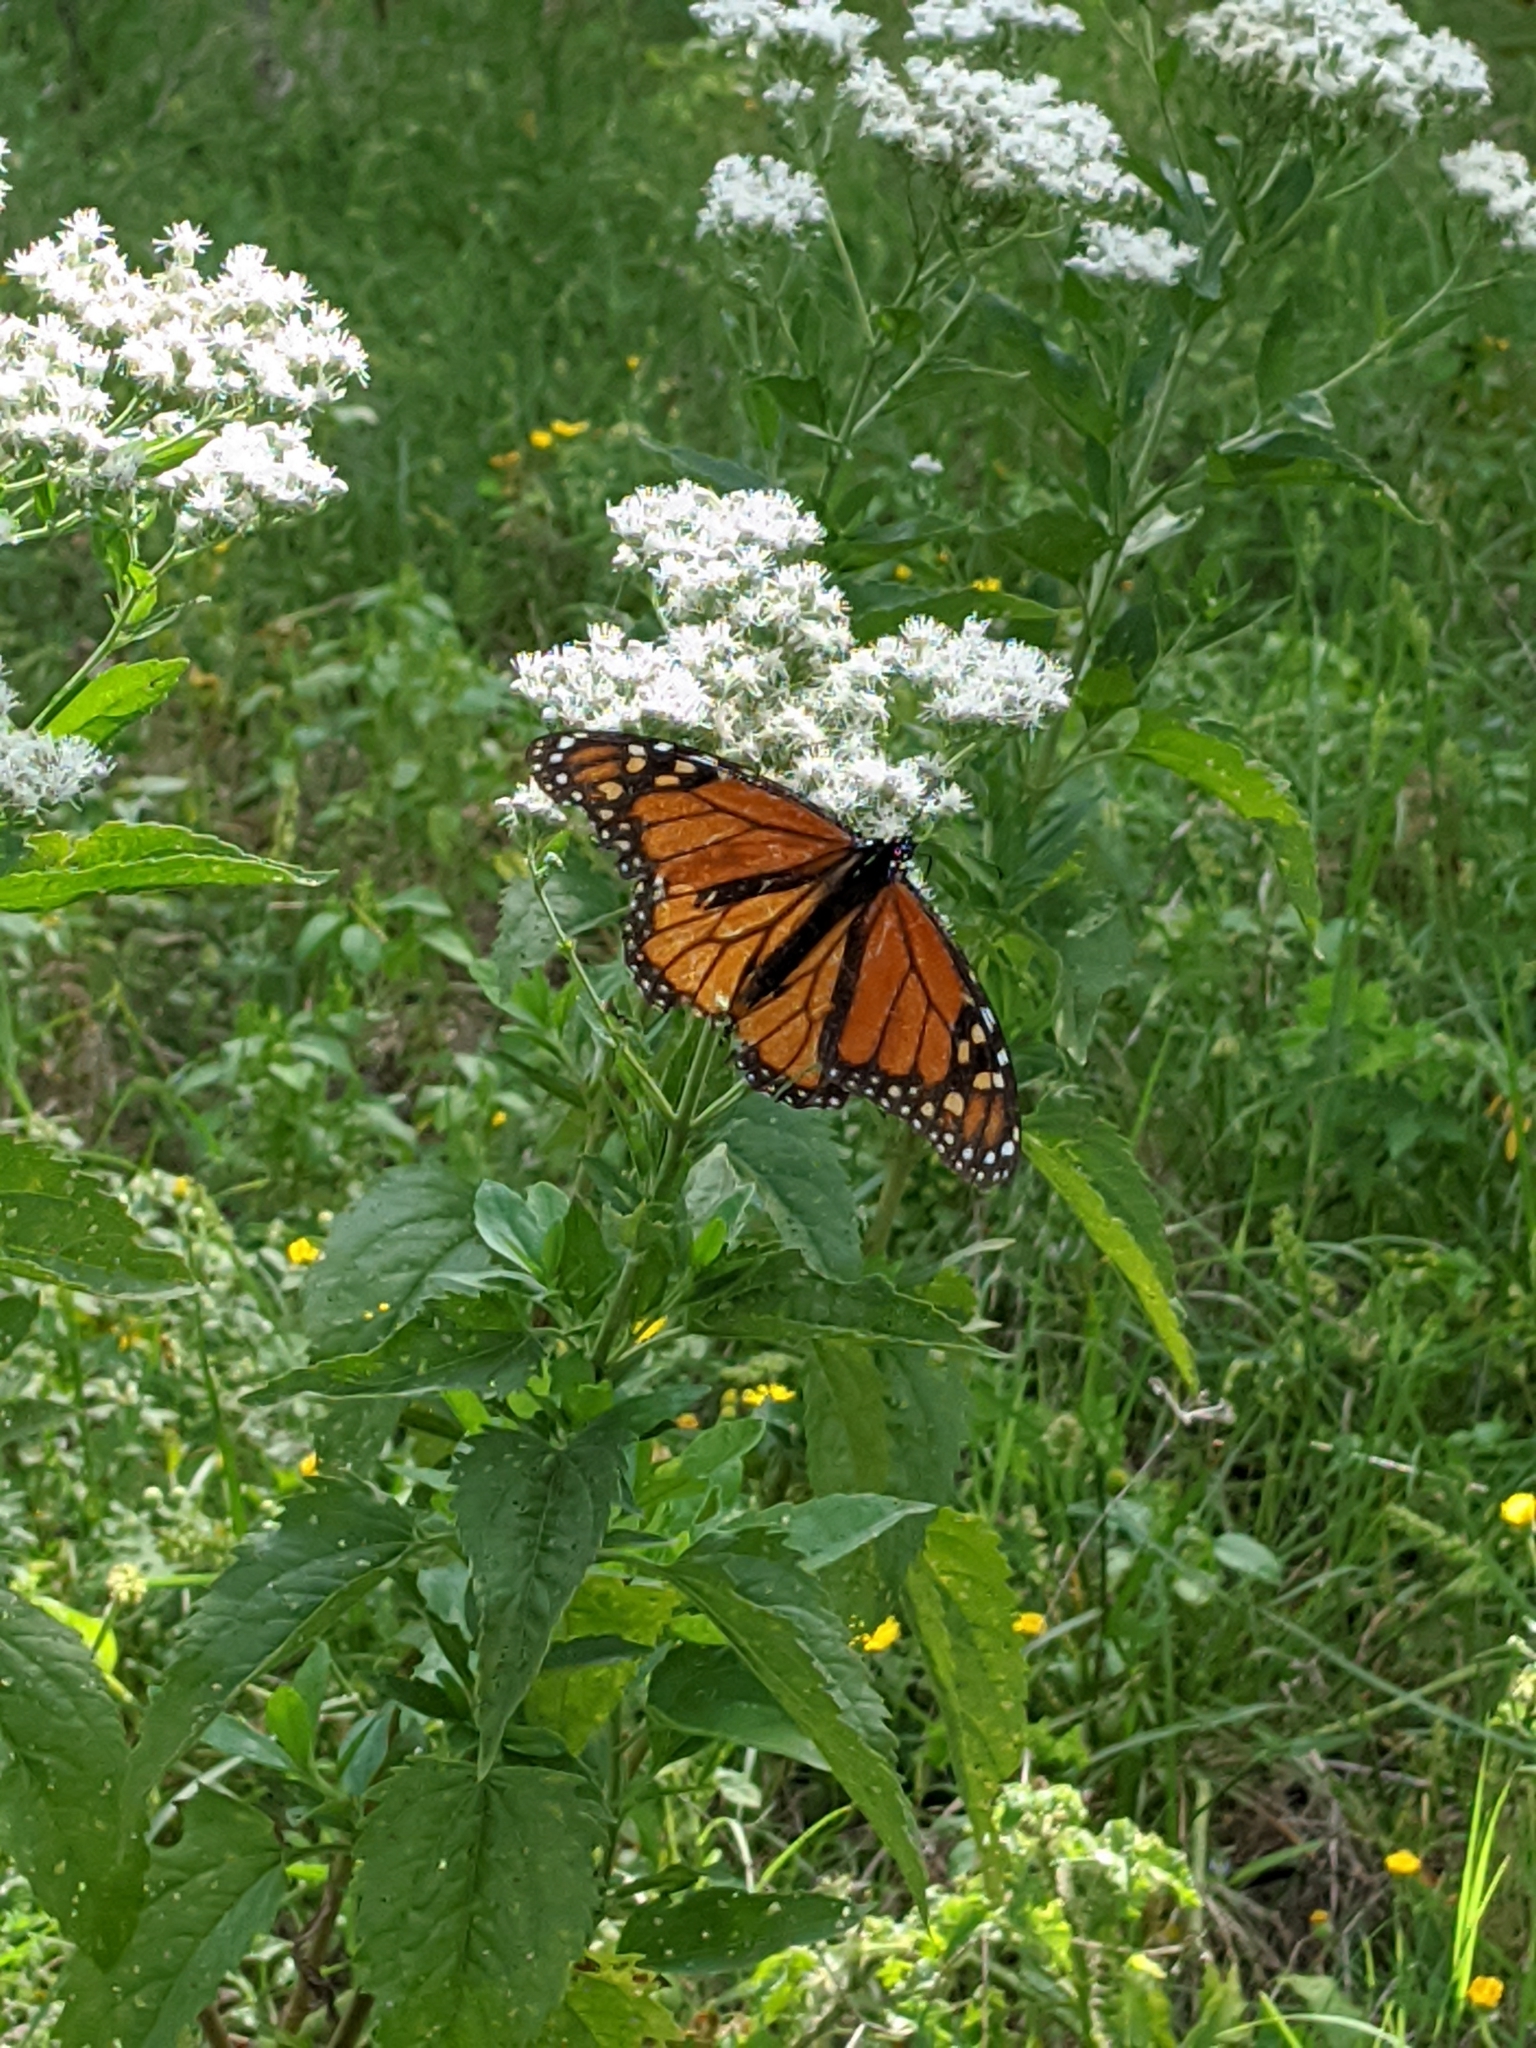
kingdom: Animalia
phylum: Arthropoda
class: Insecta
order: Lepidoptera
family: Nymphalidae
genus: Danaus
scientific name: Danaus plexippus
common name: Monarch
